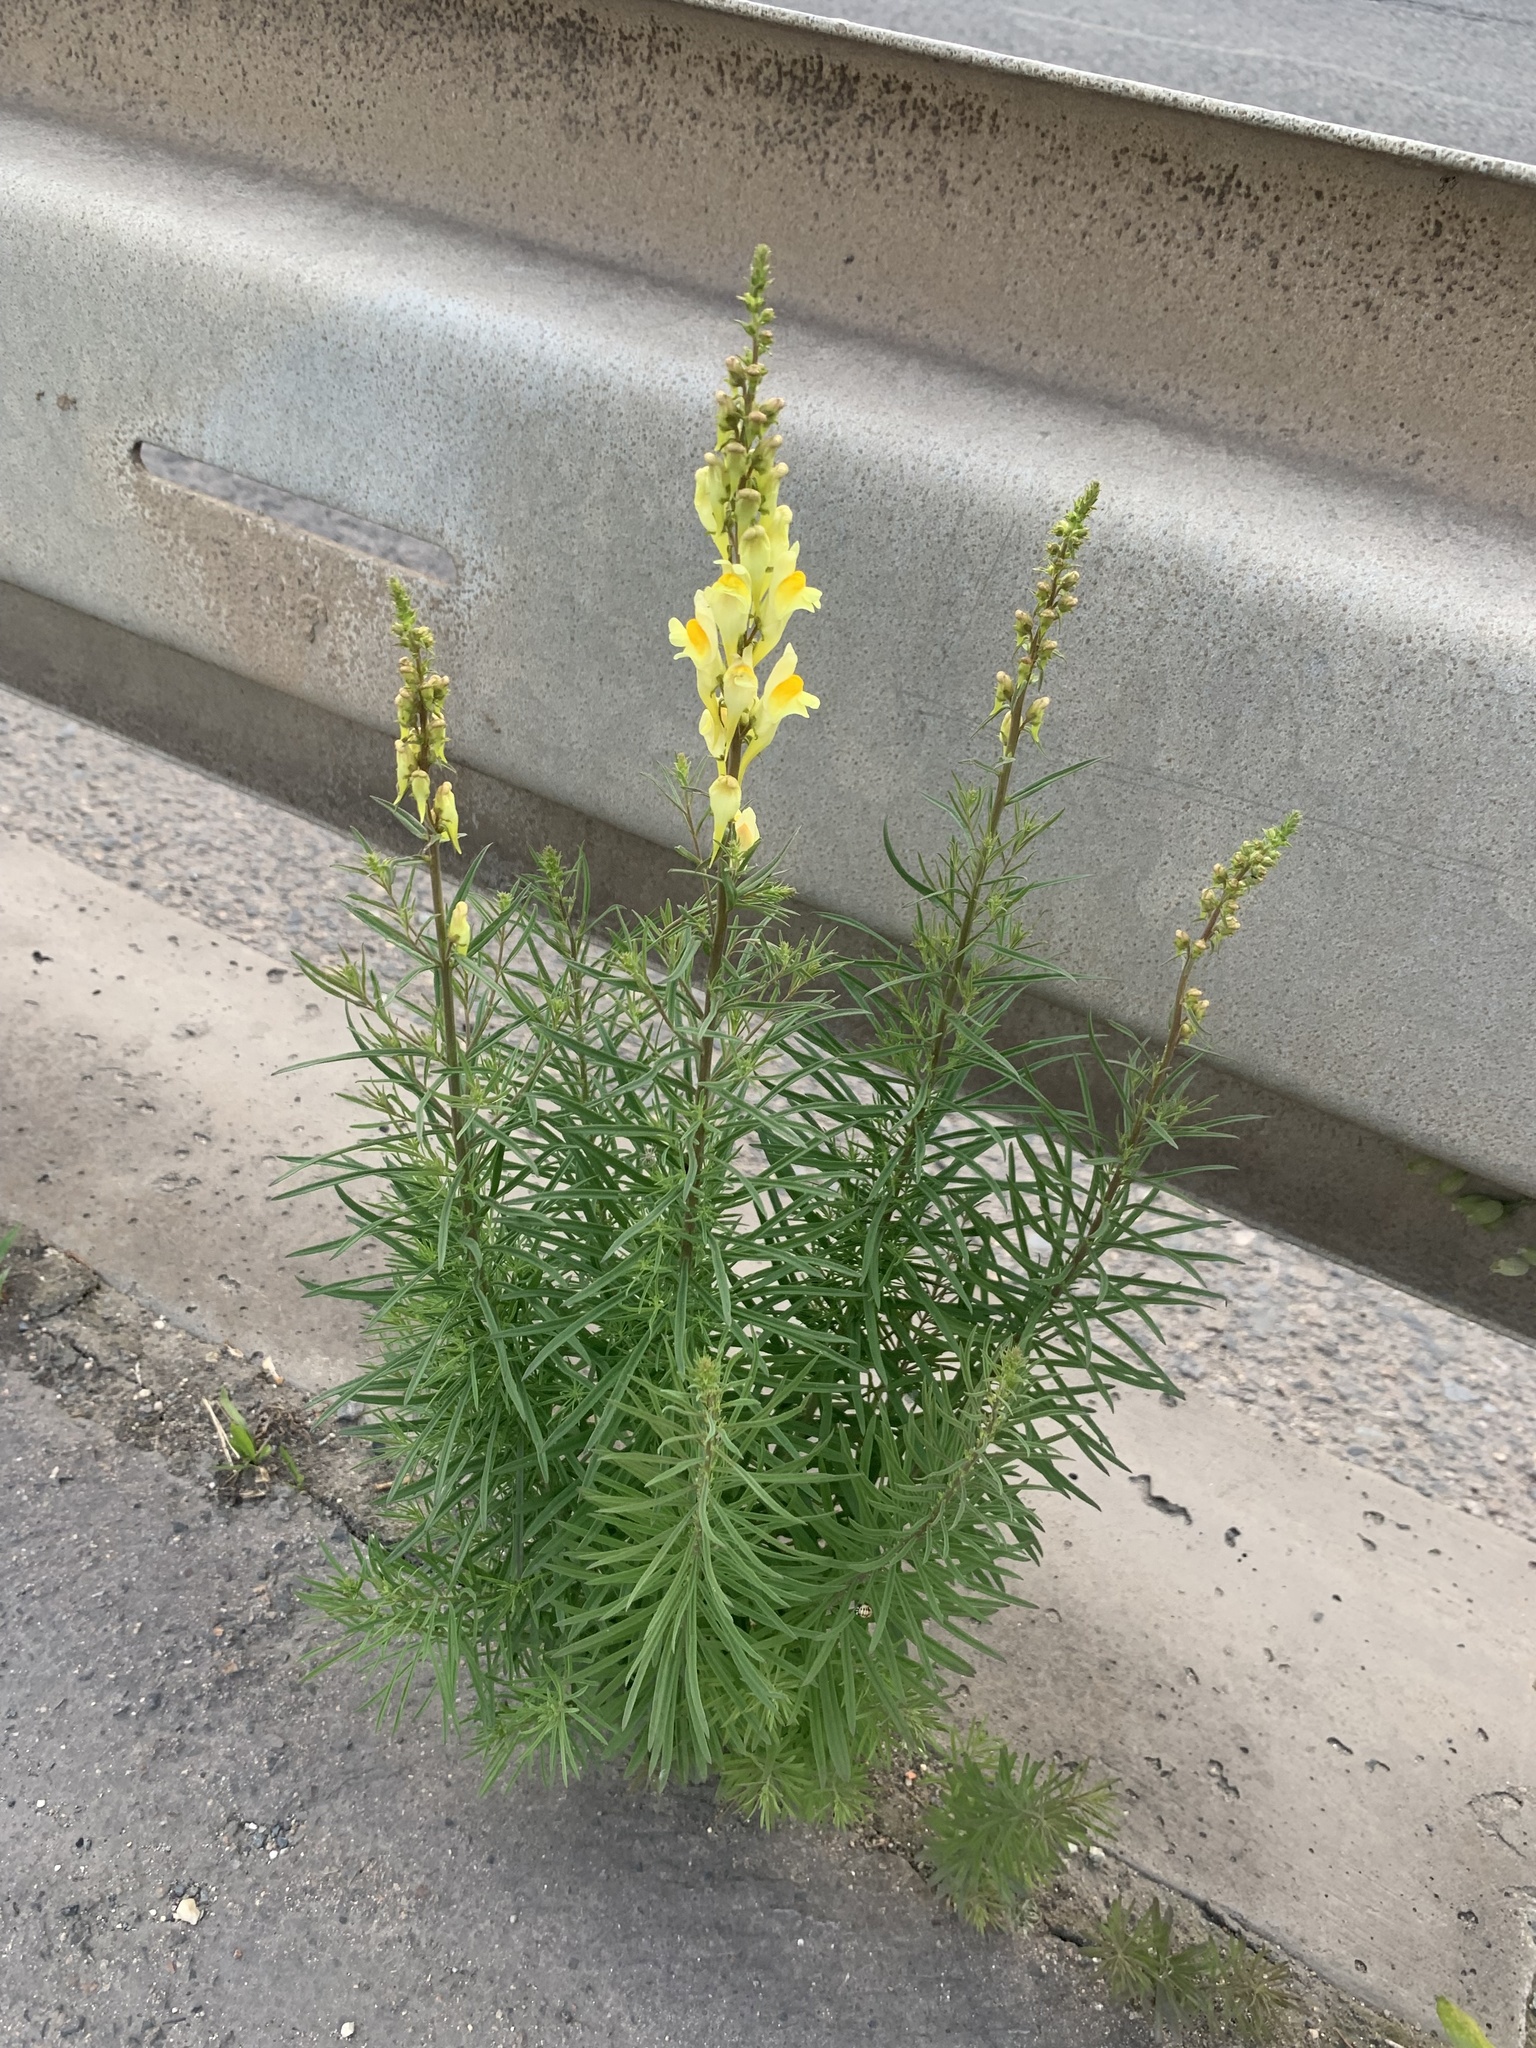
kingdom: Plantae
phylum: Tracheophyta
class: Magnoliopsida
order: Lamiales
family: Plantaginaceae
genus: Linaria
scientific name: Linaria vulgaris
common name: Butter and eggs
